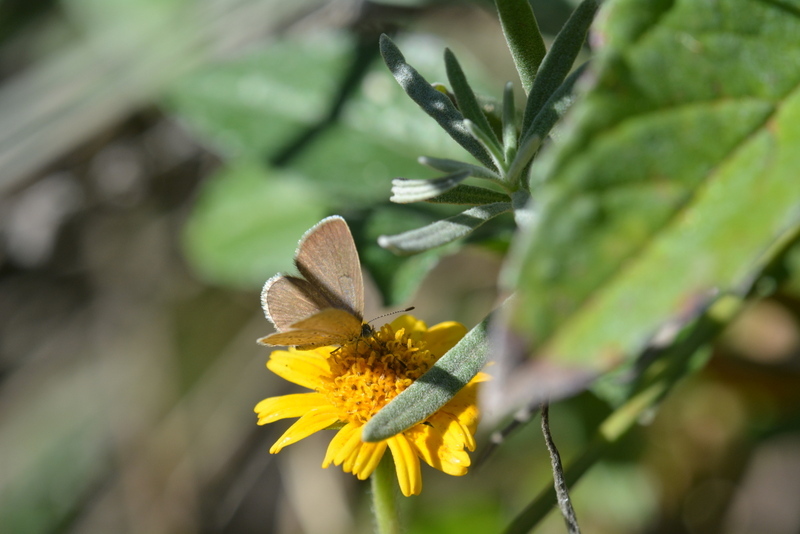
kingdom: Animalia
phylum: Arthropoda
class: Insecta
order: Lepidoptera
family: Lycaenidae
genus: Zizeeria
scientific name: Zizeeria knysna
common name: African grass blue
